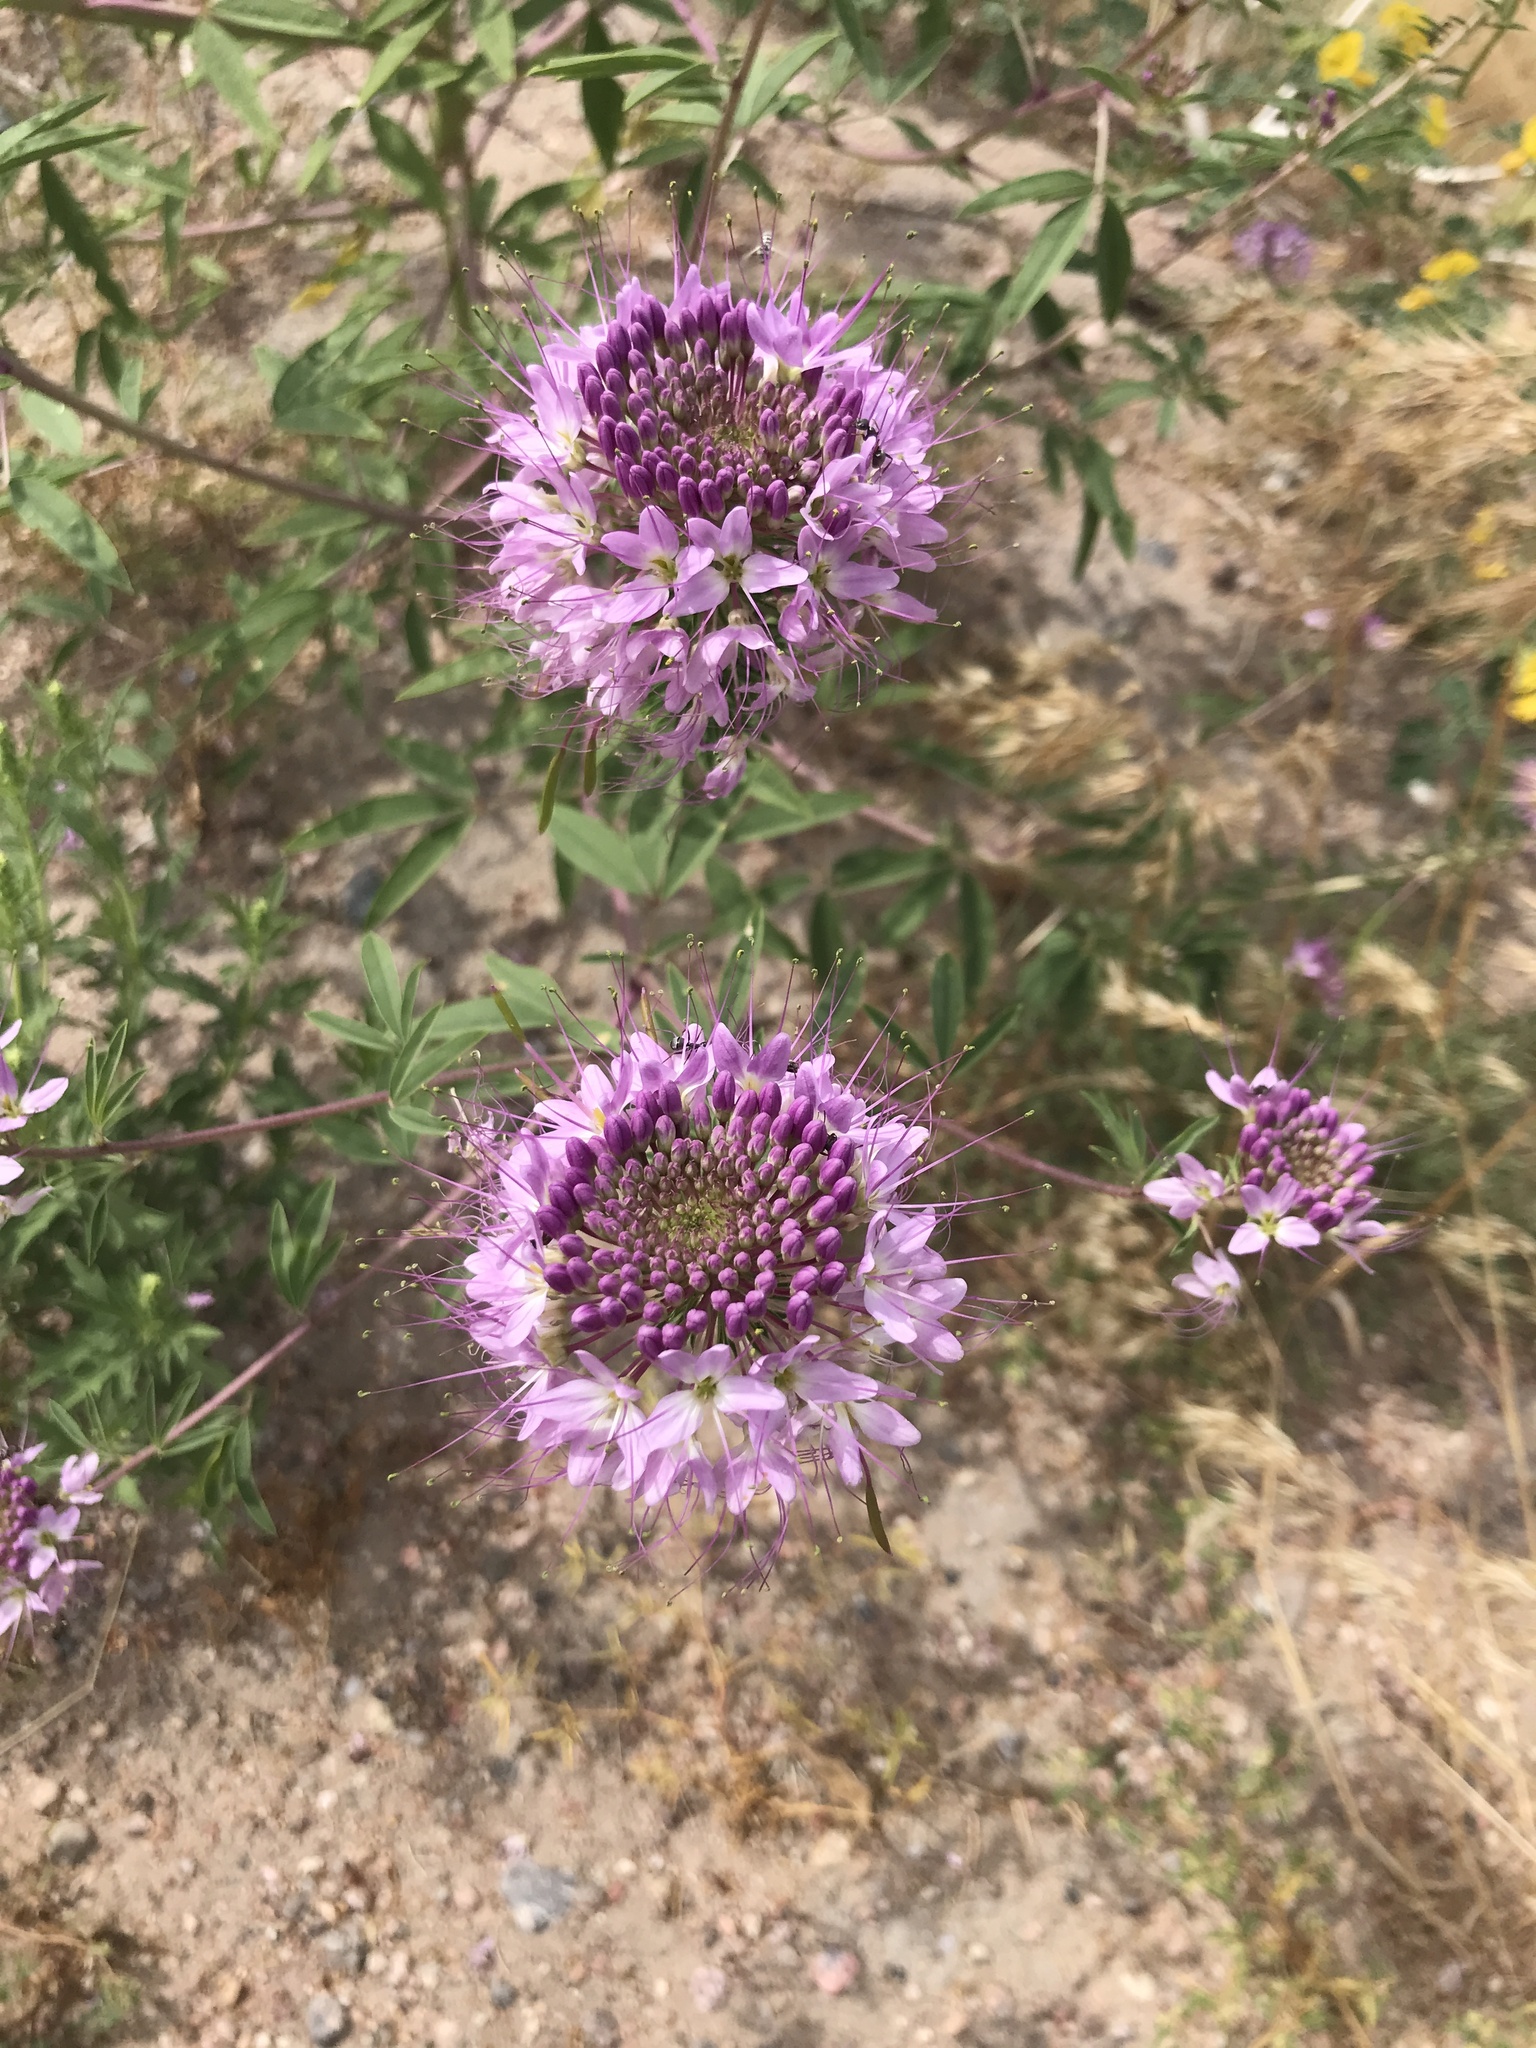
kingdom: Plantae
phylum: Tracheophyta
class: Magnoliopsida
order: Brassicales
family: Cleomaceae
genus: Cleomella
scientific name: Cleomella serrulata
